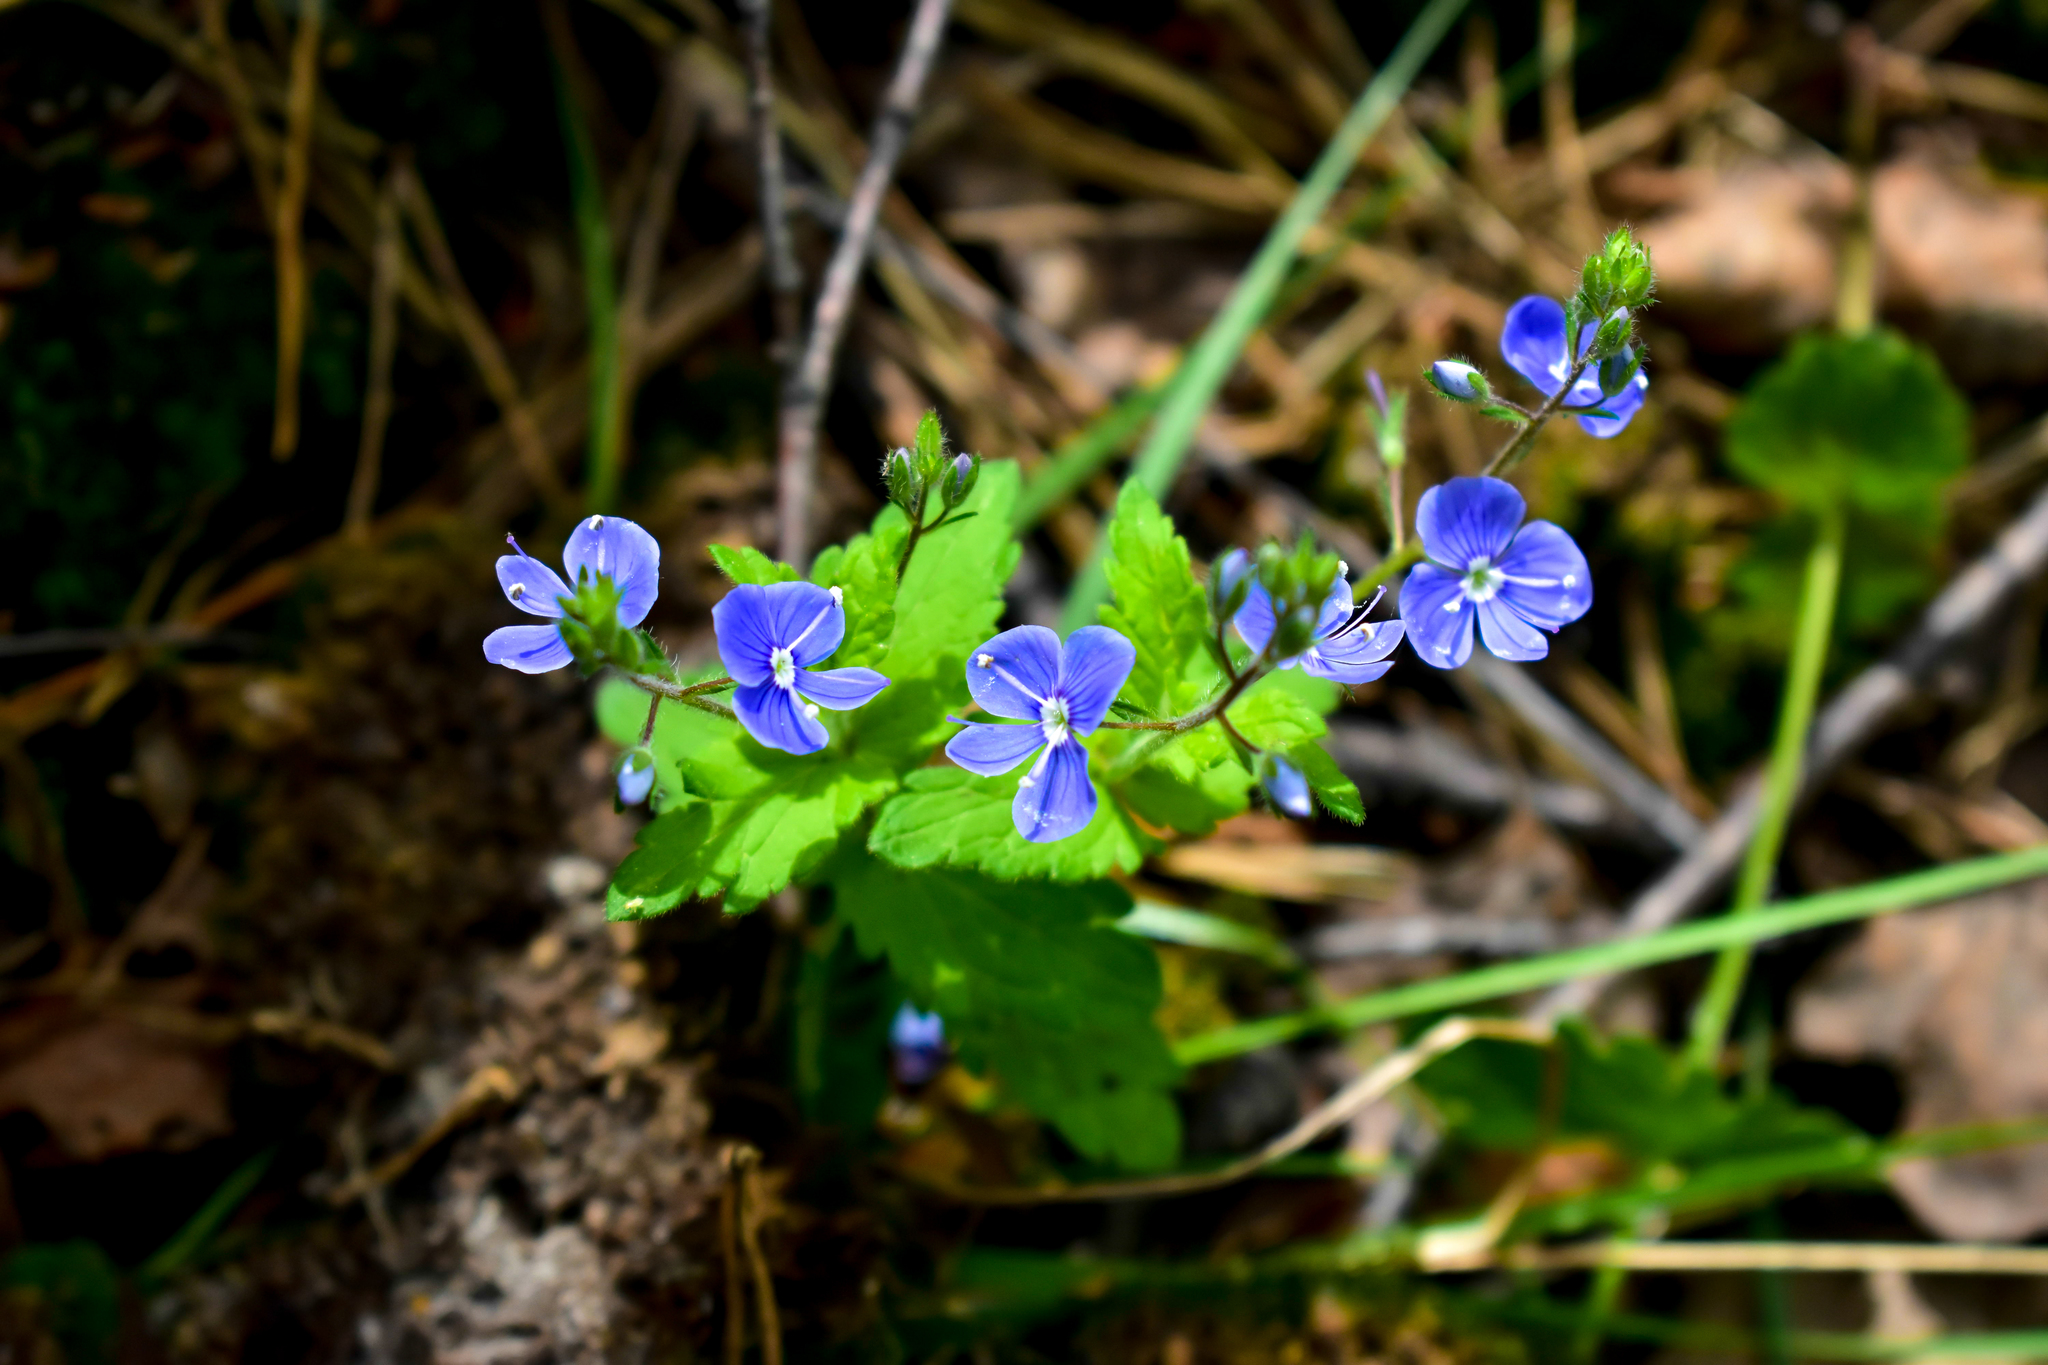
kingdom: Plantae
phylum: Tracheophyta
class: Magnoliopsida
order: Lamiales
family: Plantaginaceae
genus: Veronica
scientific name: Veronica chamaedrys
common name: Germander speedwell
